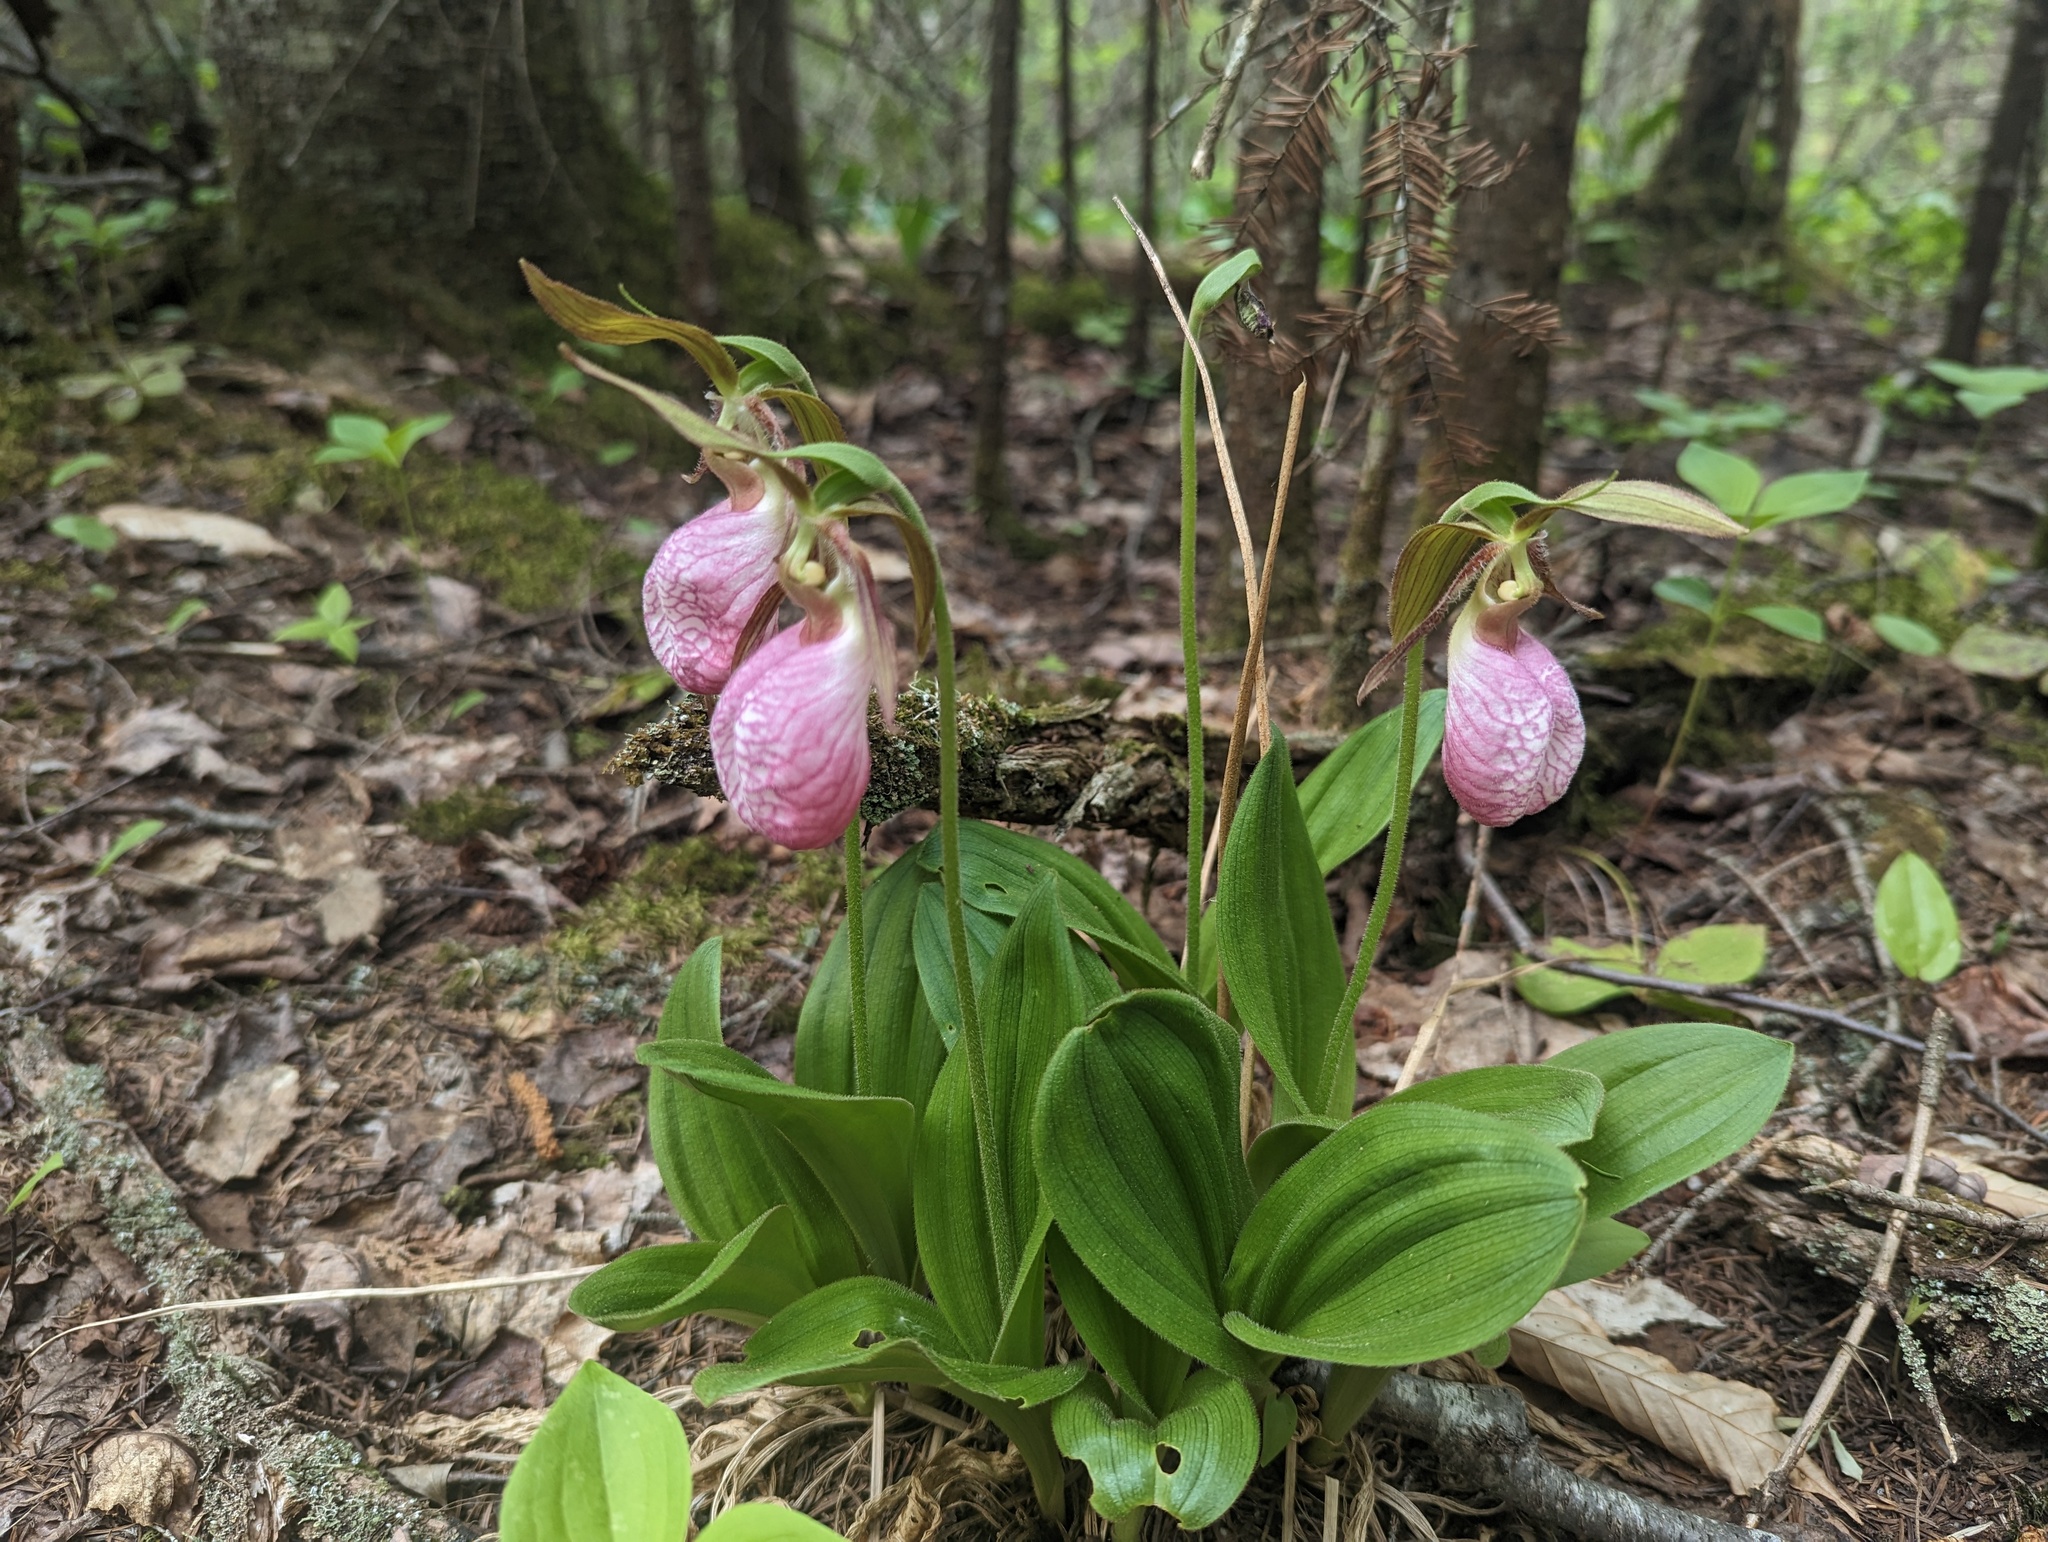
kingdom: Plantae
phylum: Tracheophyta
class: Liliopsida
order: Asparagales
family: Orchidaceae
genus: Cypripedium
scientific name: Cypripedium acaule
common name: Pink lady's-slipper
